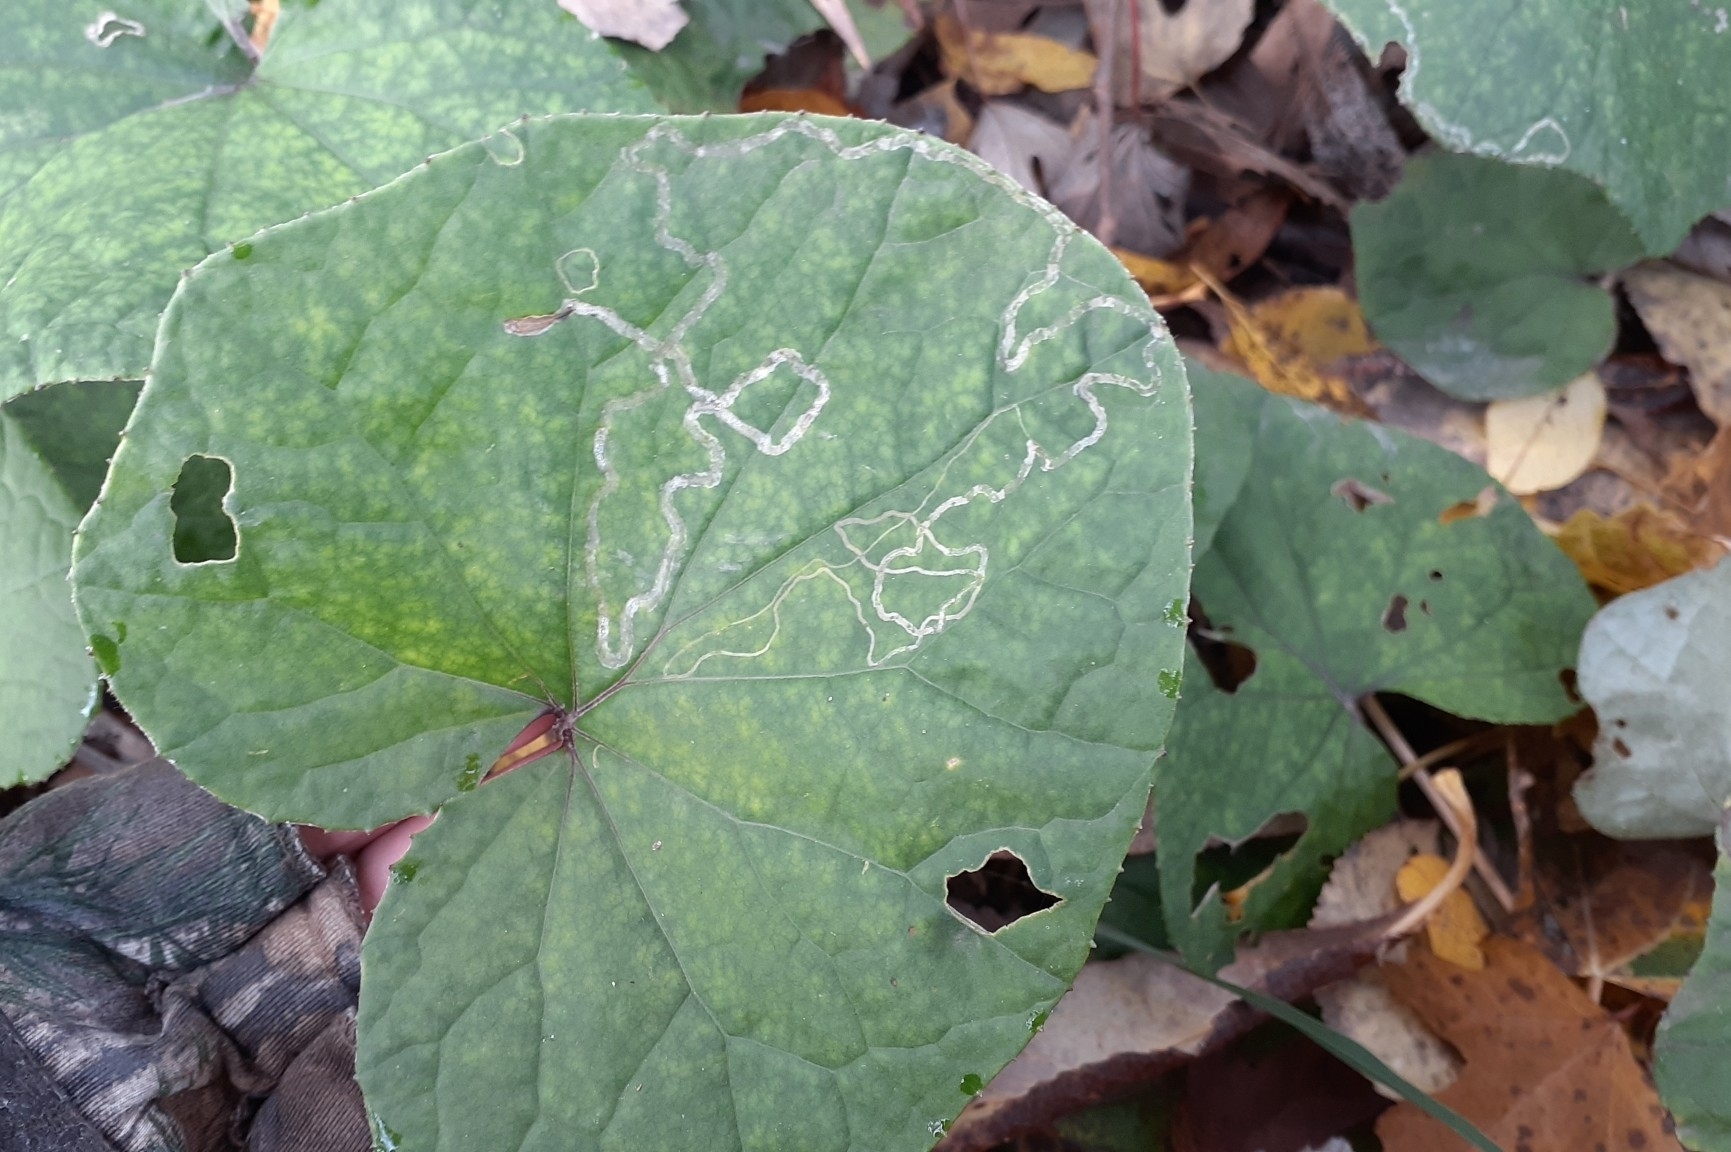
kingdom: Animalia
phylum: Arthropoda
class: Insecta
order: Lepidoptera
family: Gracillariidae
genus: Phyllocnistis
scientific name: Phyllocnistis insignis
